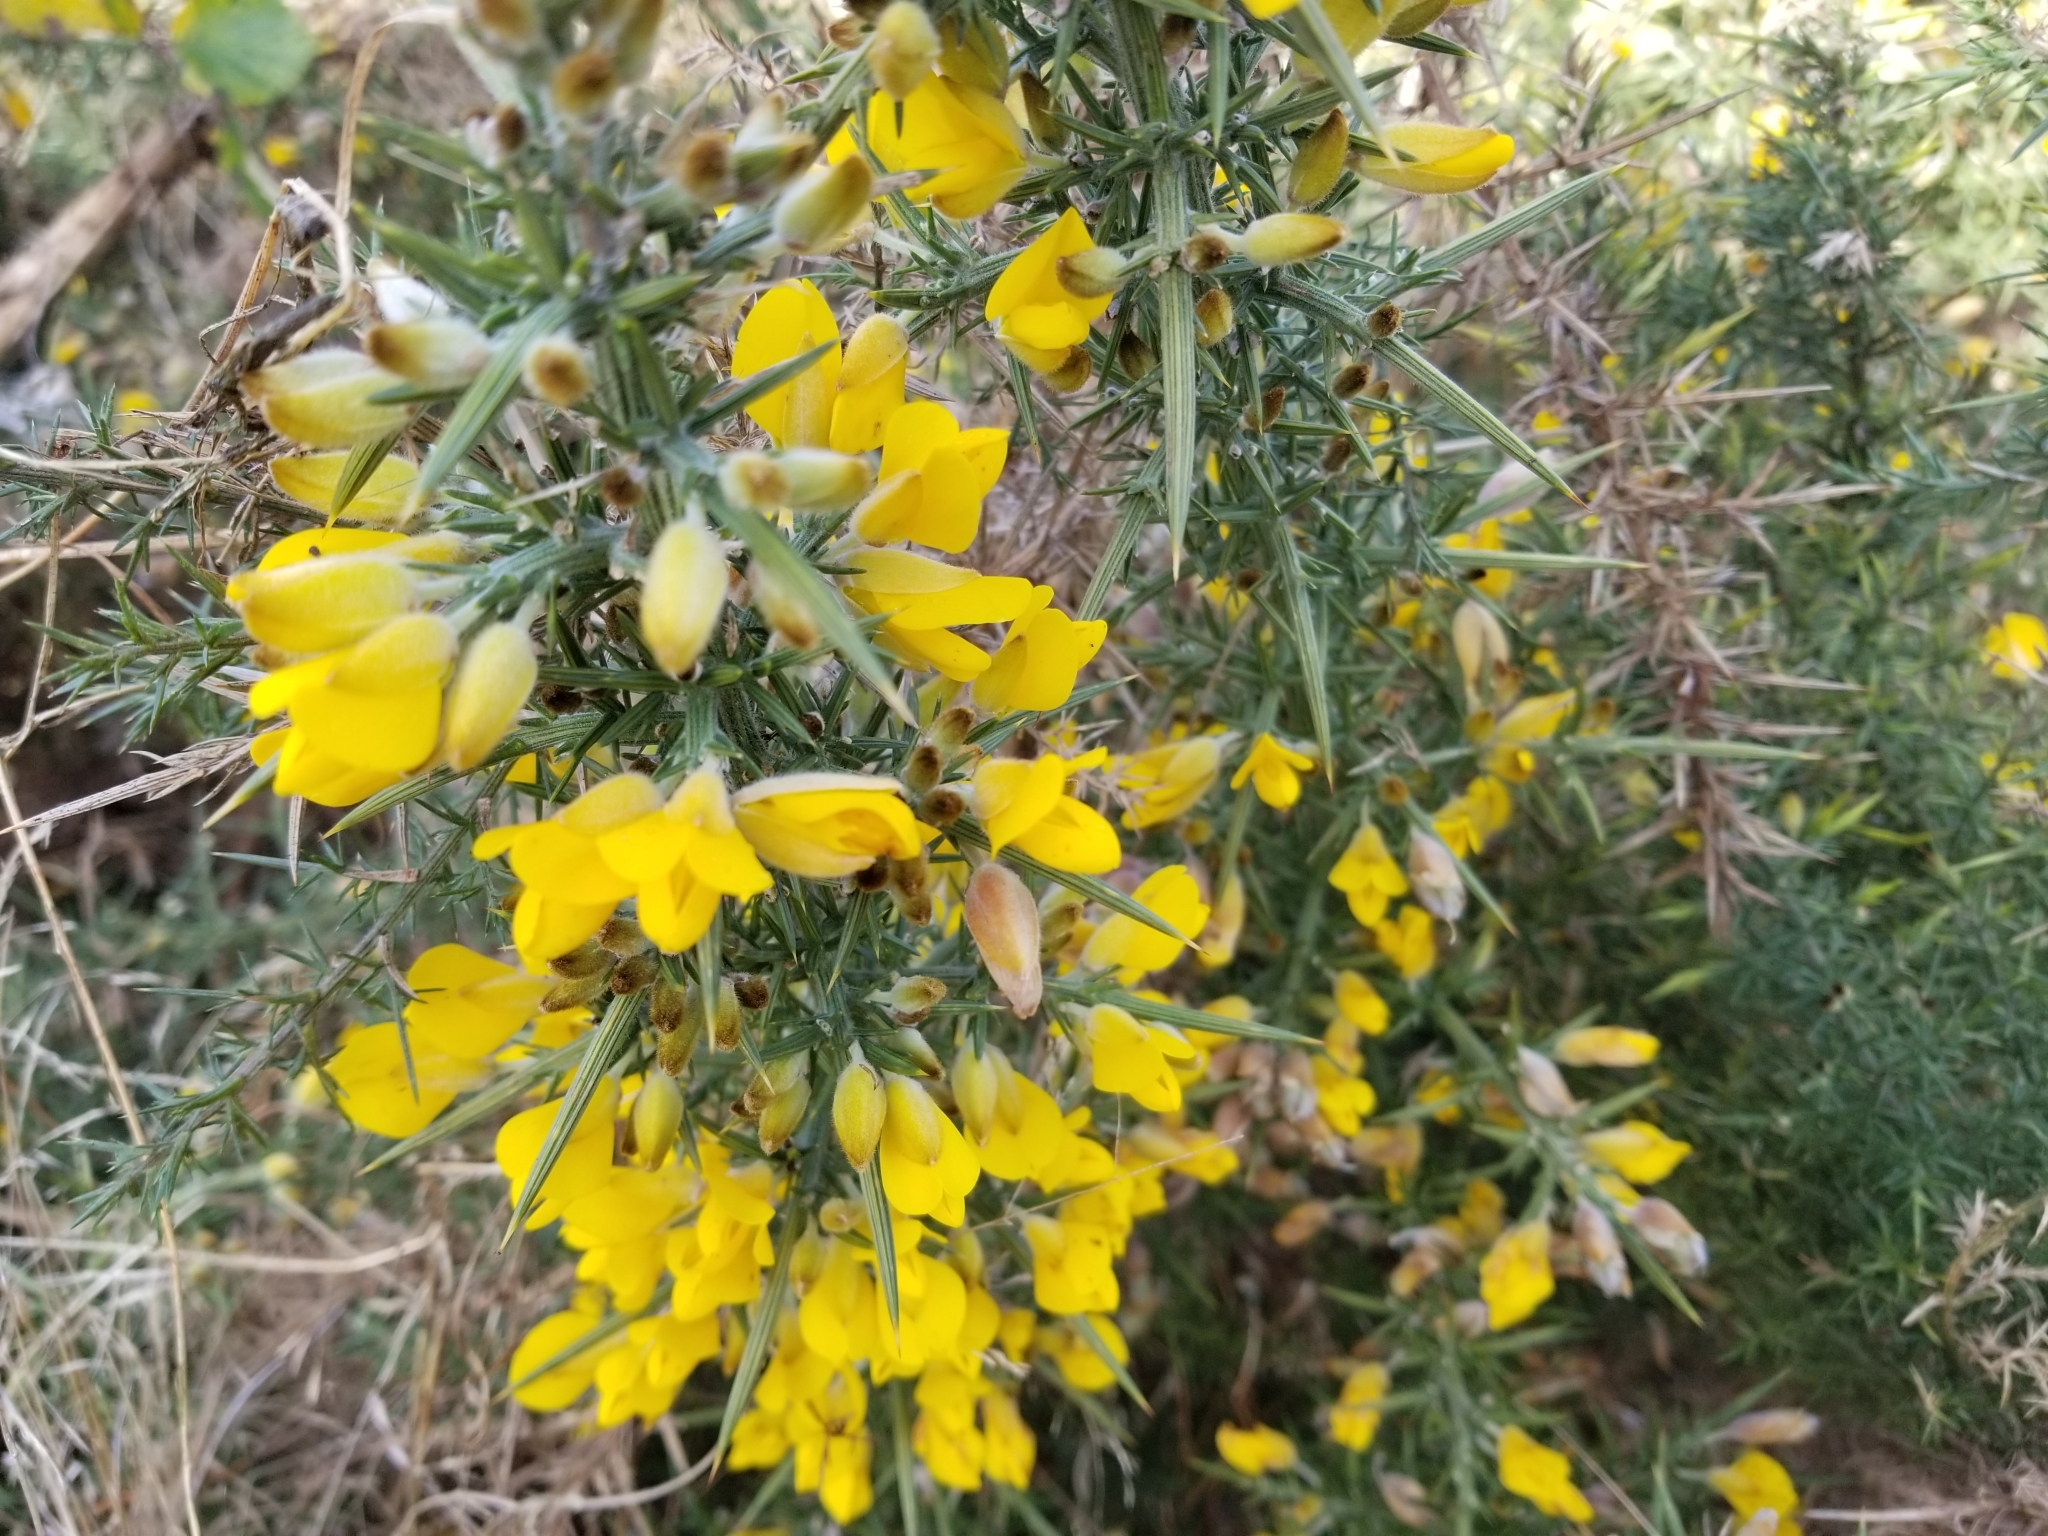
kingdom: Plantae
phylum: Tracheophyta
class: Magnoliopsida
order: Fabales
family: Fabaceae
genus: Ulex
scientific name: Ulex europaeus
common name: Common gorse
